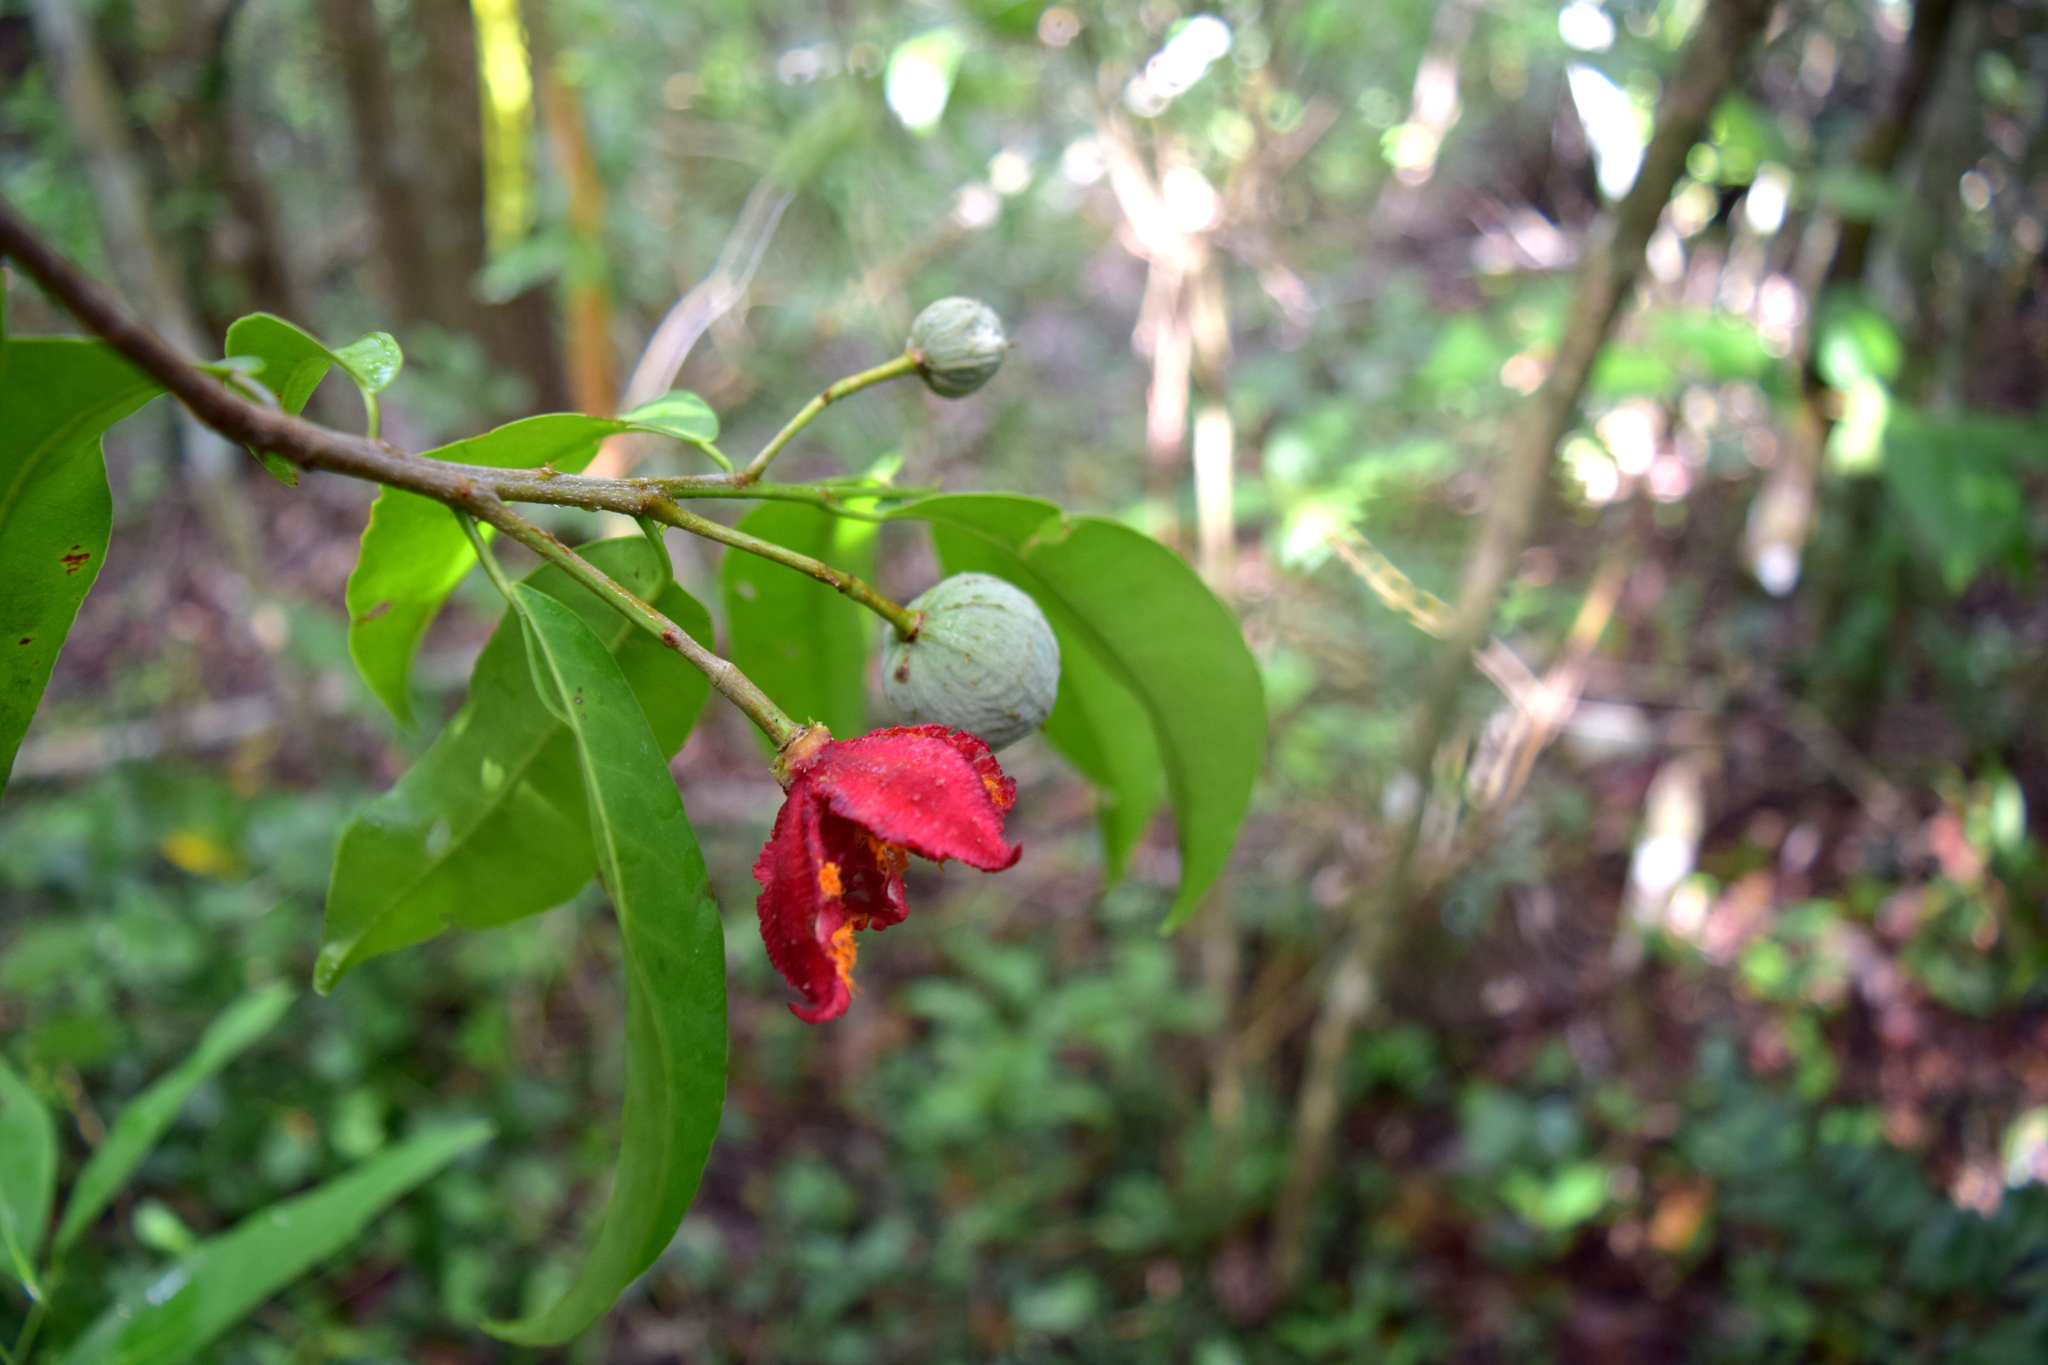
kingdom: Plantae
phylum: Tracheophyta
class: Magnoliopsida
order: Malpighiales
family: Salicaceae
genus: Casearia
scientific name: Casearia thamnia
